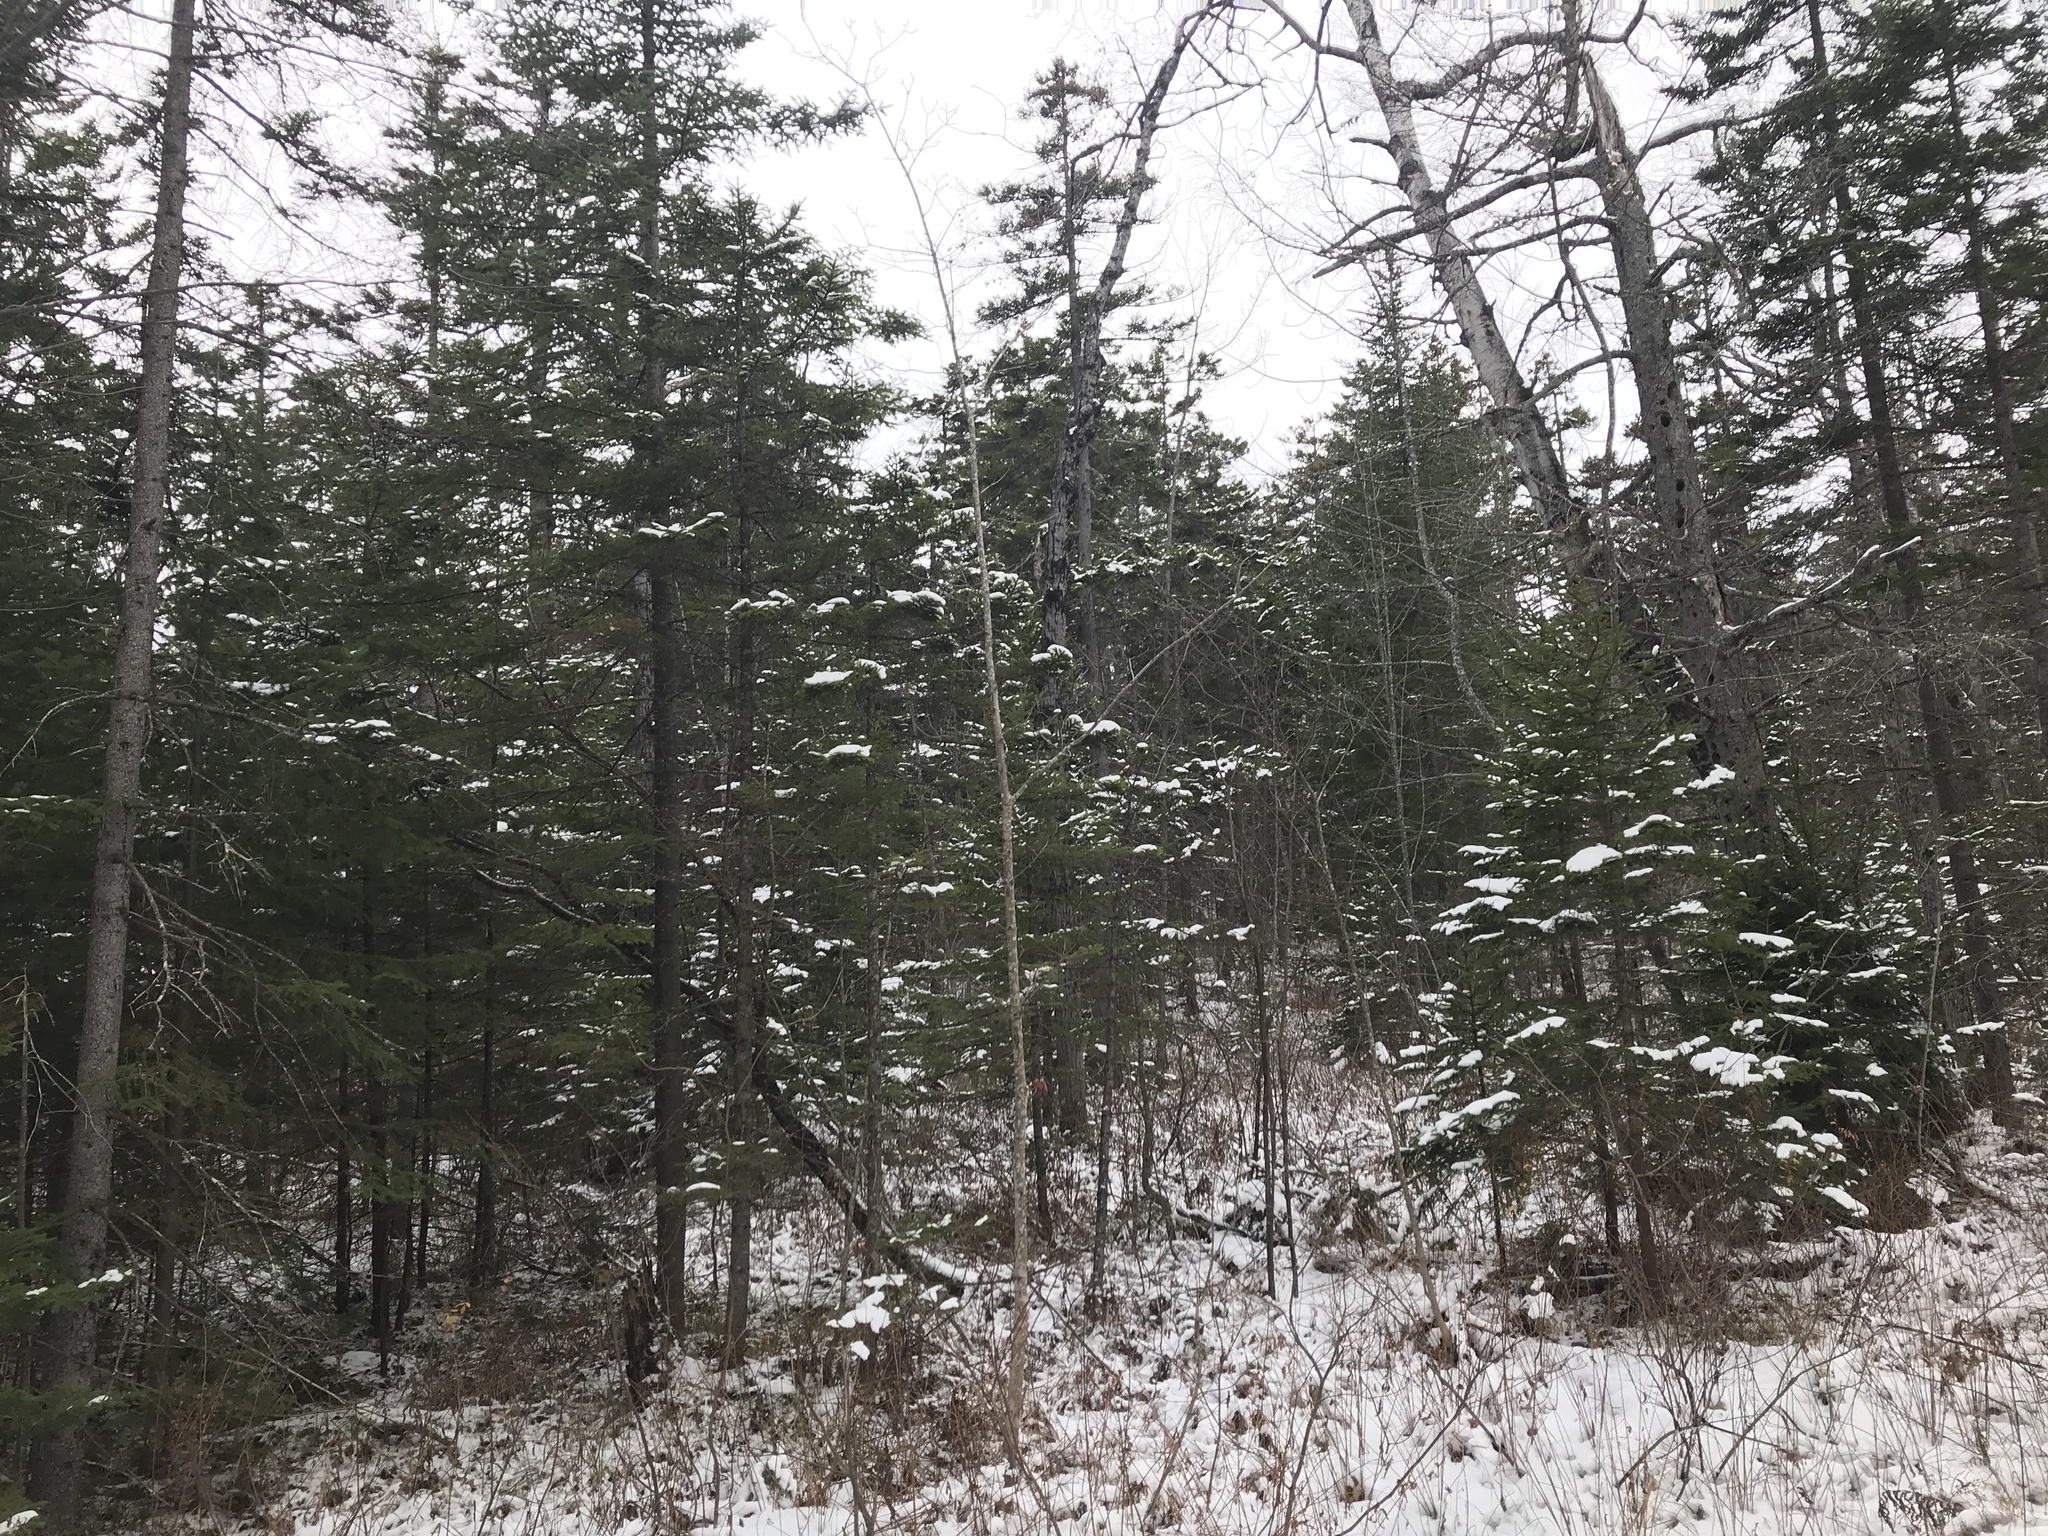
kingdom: Plantae
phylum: Tracheophyta
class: Pinopsida
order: Pinales
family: Pinaceae
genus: Picea
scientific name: Picea rubens
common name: Red spruce
